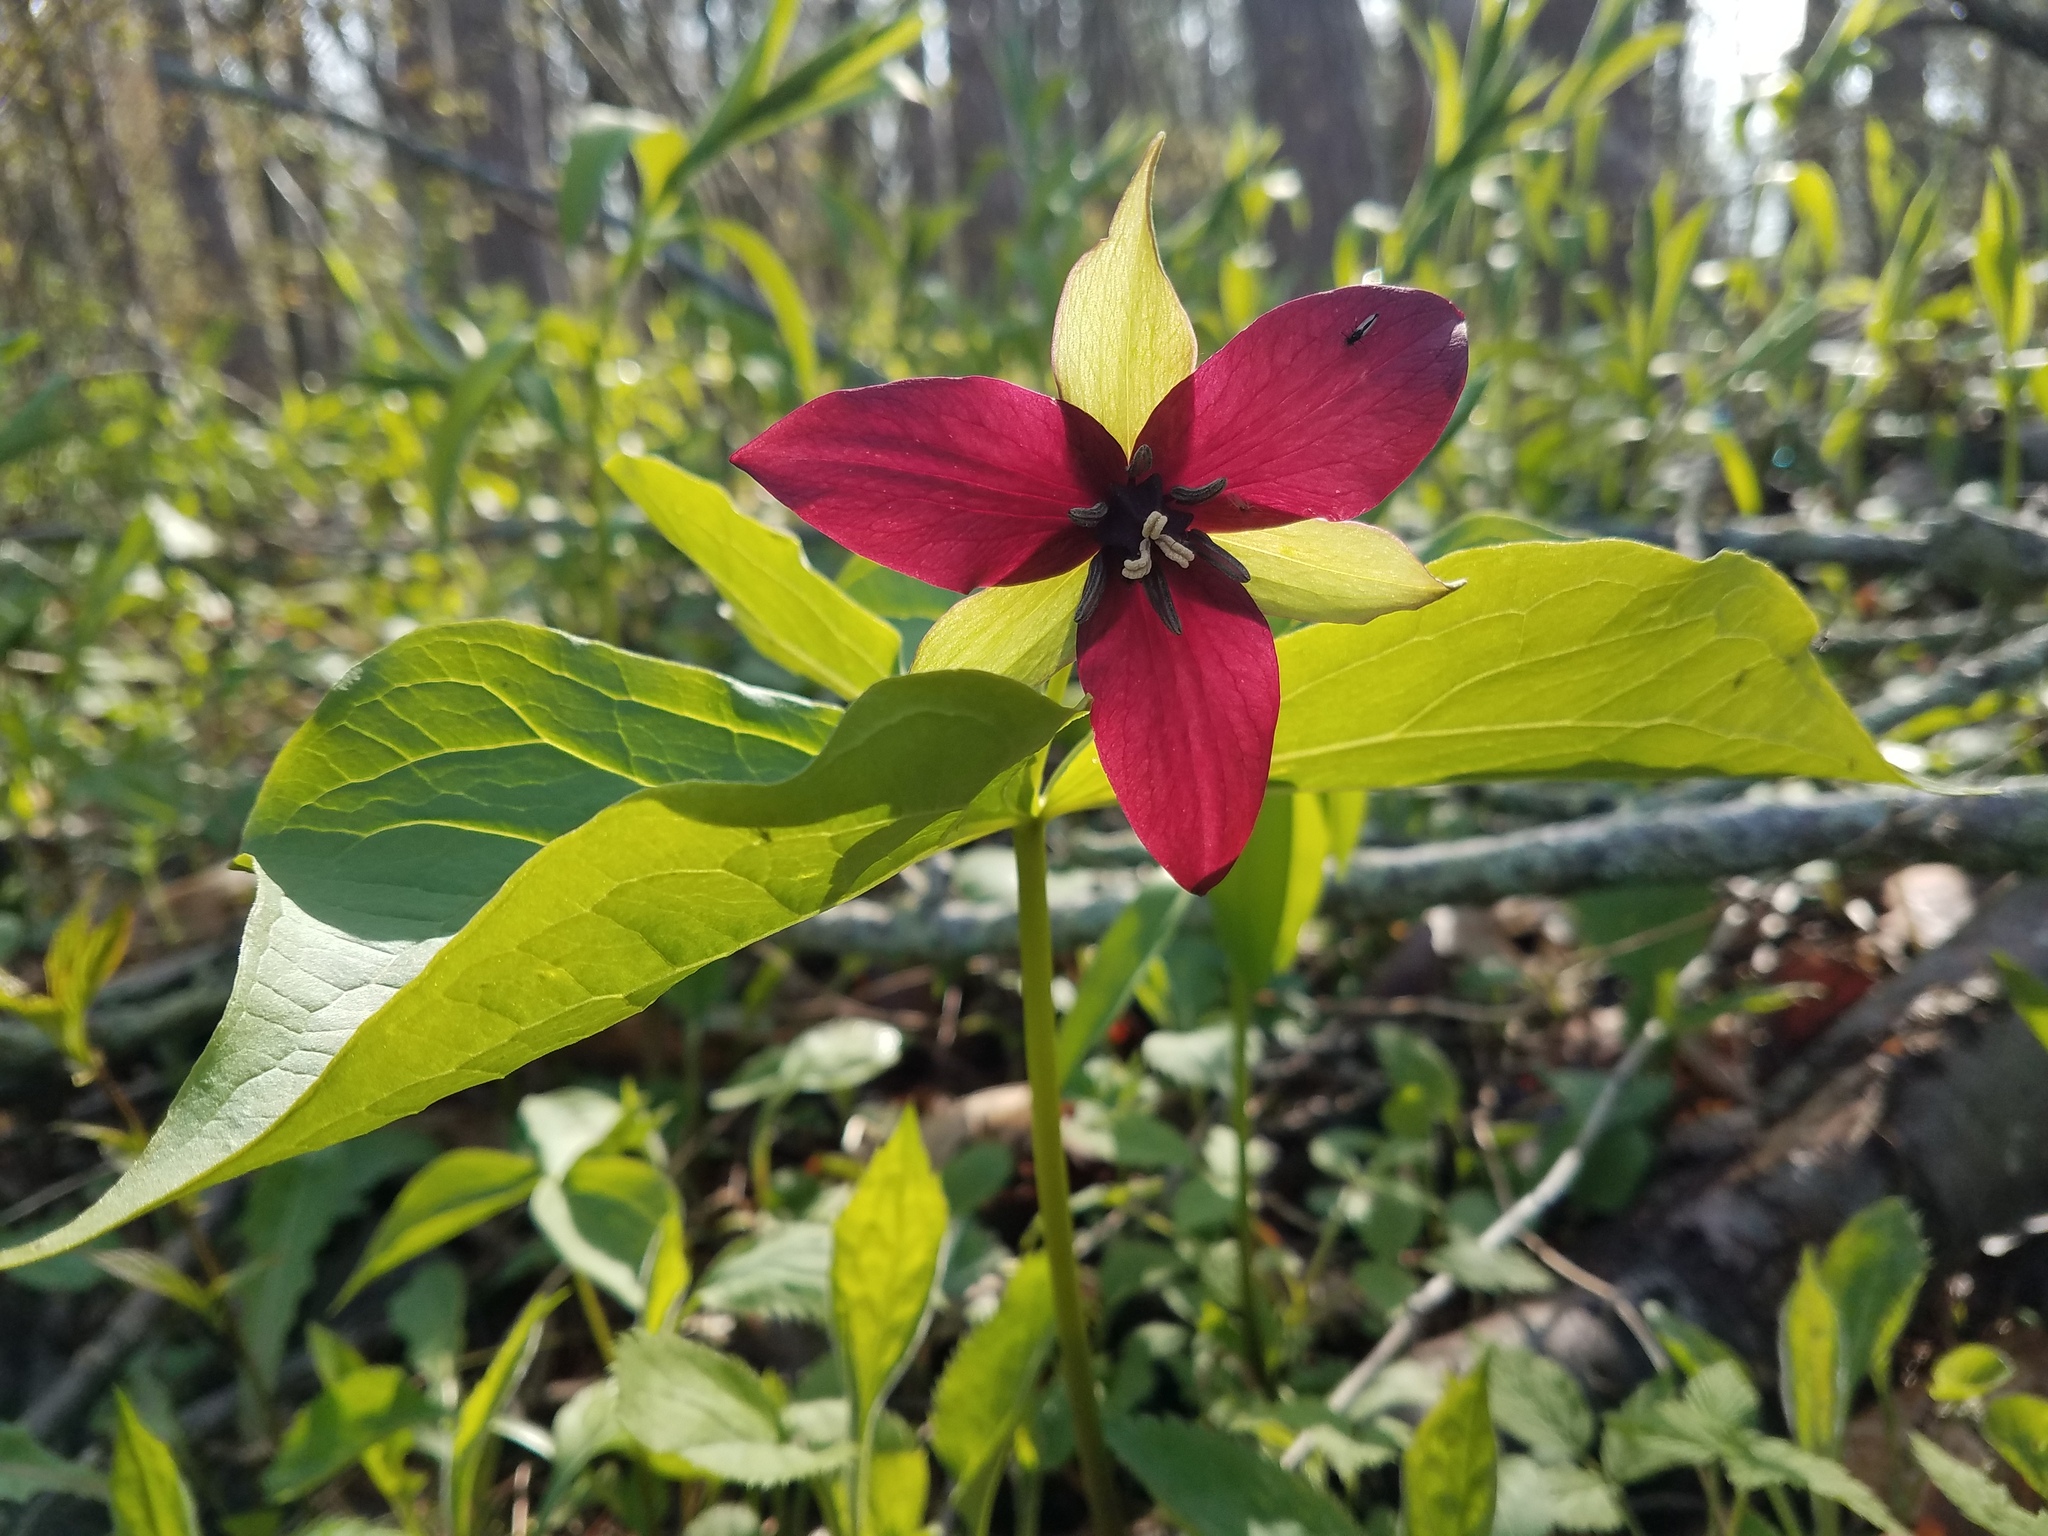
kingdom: Plantae
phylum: Tracheophyta
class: Liliopsida
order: Liliales
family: Melanthiaceae
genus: Trillium
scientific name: Trillium erectum
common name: Purple trillium
